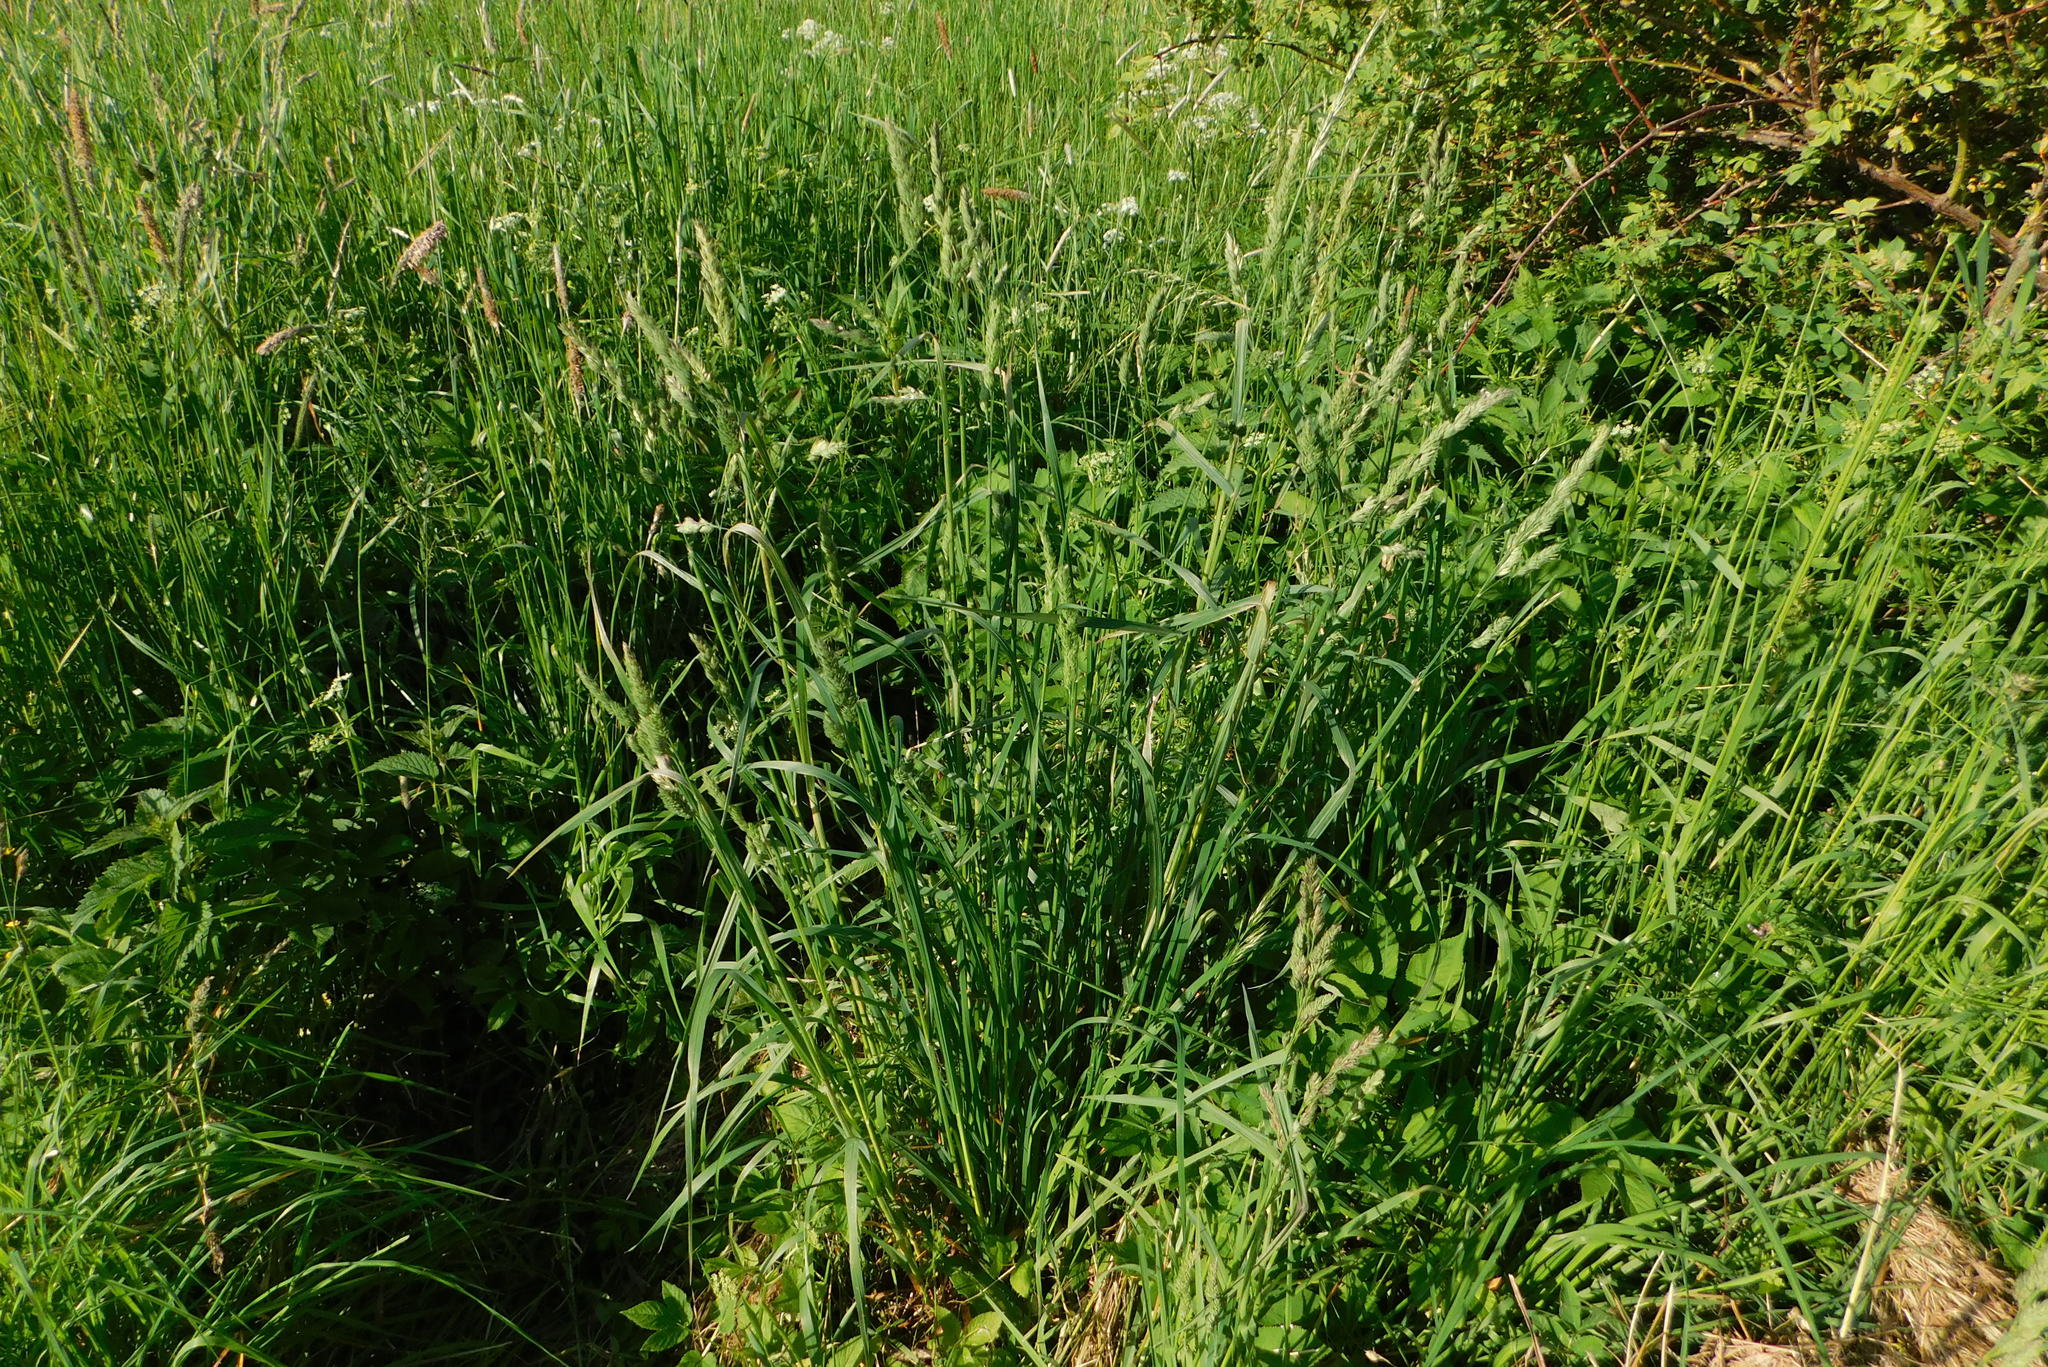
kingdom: Plantae
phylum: Tracheophyta
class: Liliopsida
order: Poales
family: Poaceae
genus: Dactylis
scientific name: Dactylis glomerata
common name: Orchardgrass
